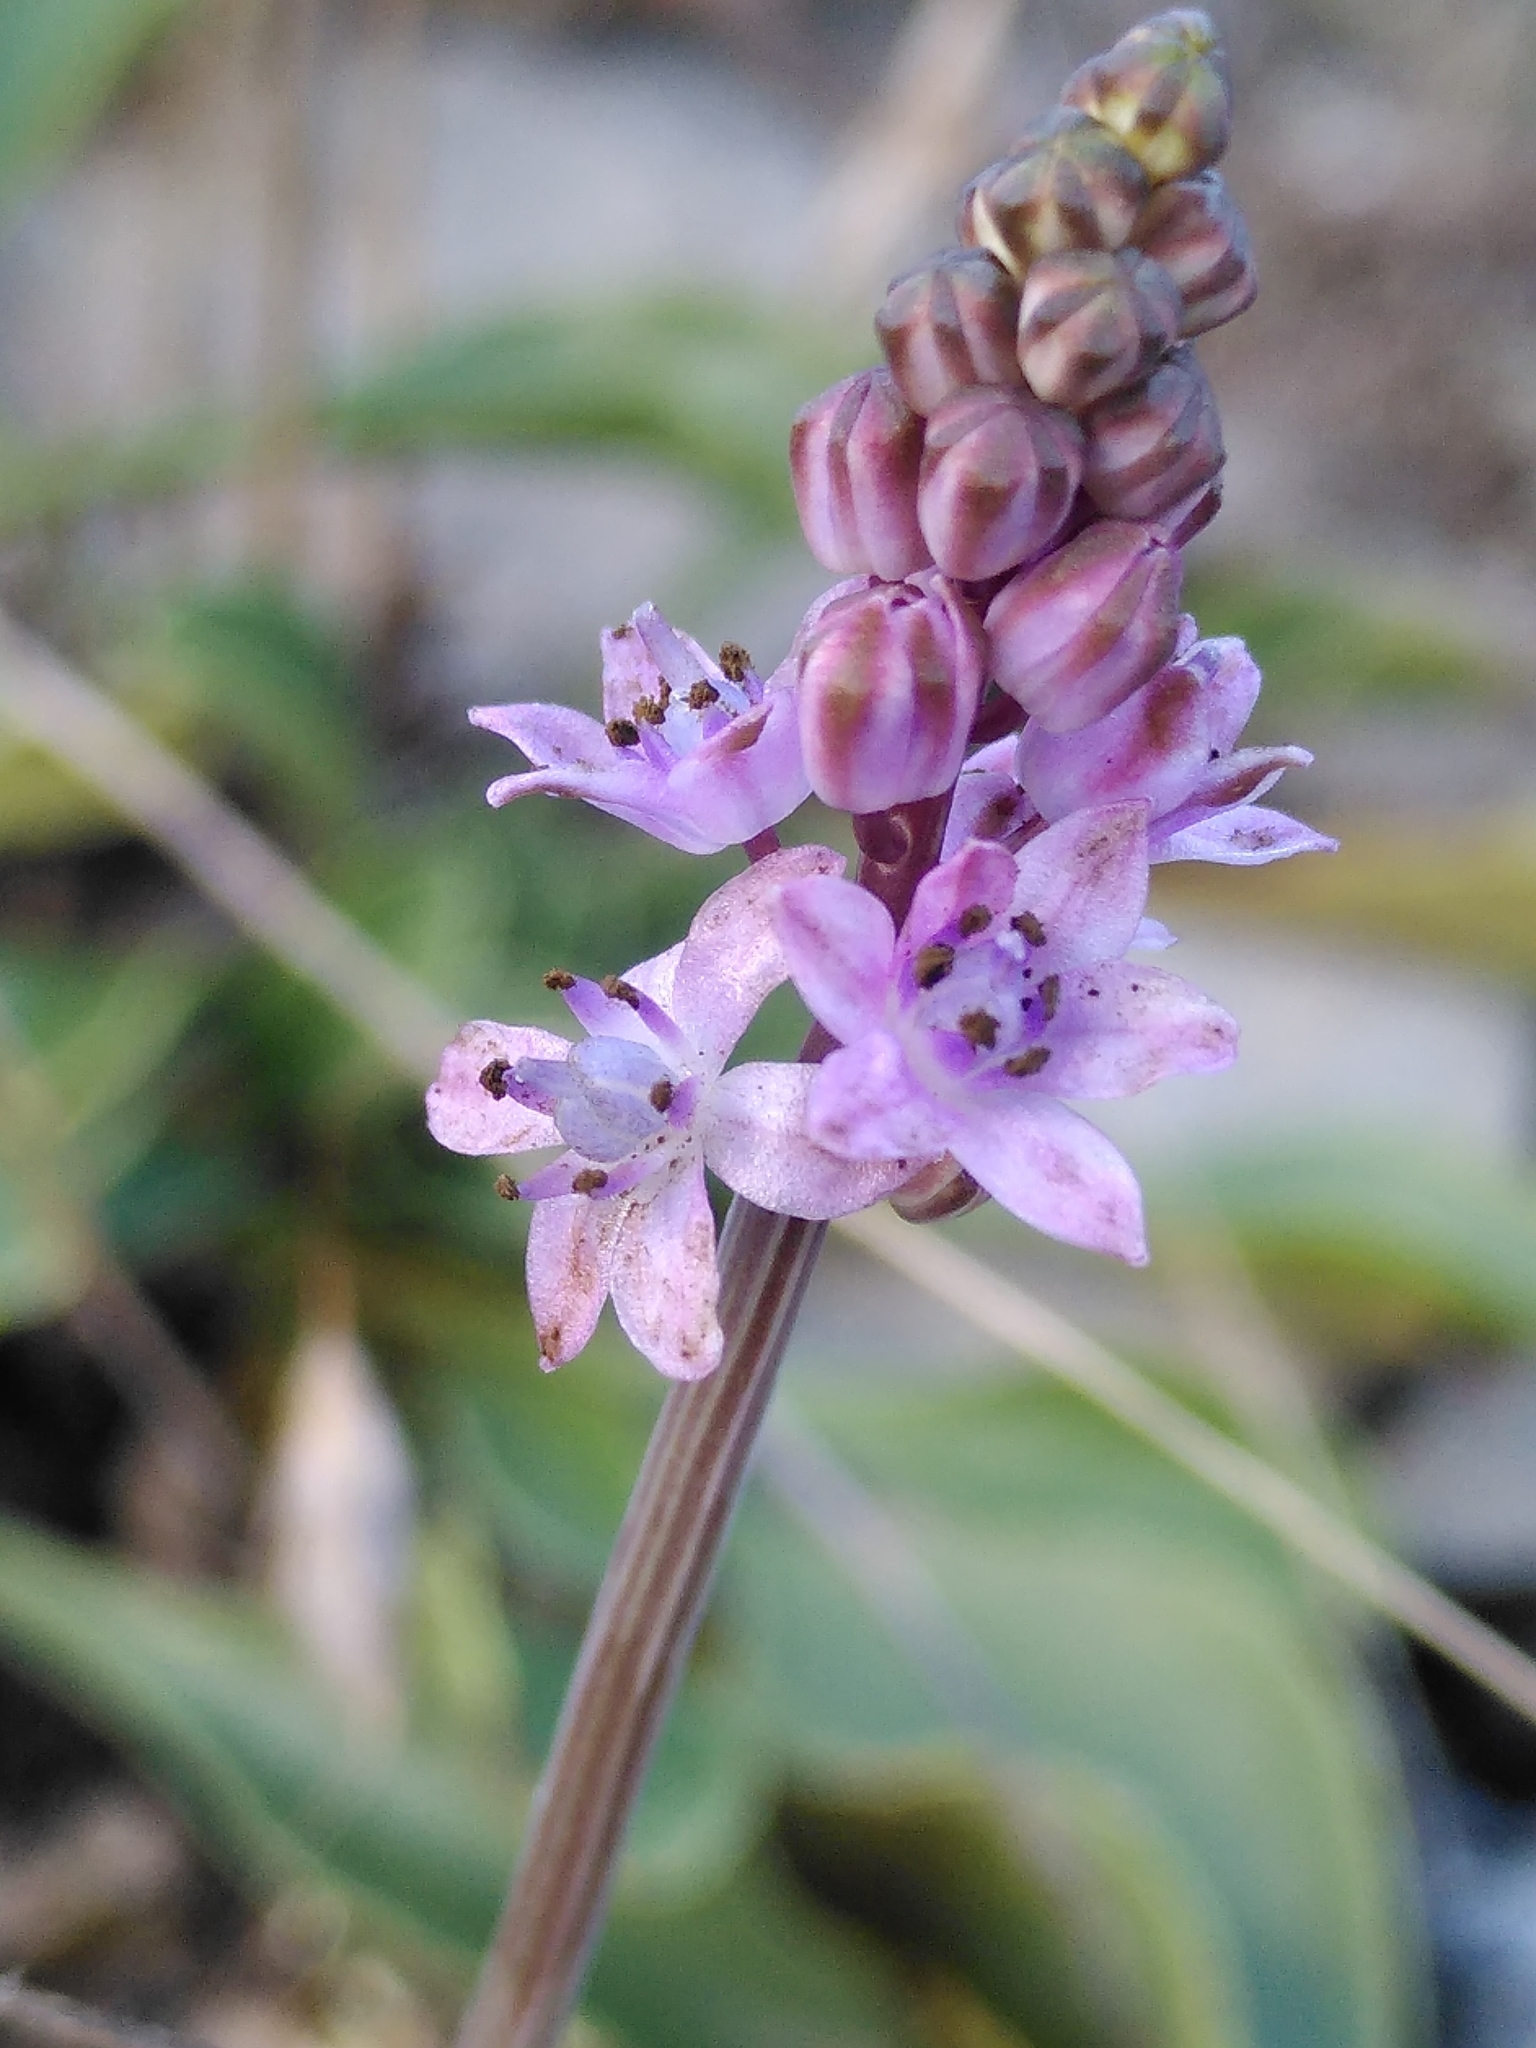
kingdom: Plantae
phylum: Tracheophyta
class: Liliopsida
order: Asparagales
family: Asparagaceae
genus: Prospero
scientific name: Prospero autumnale
